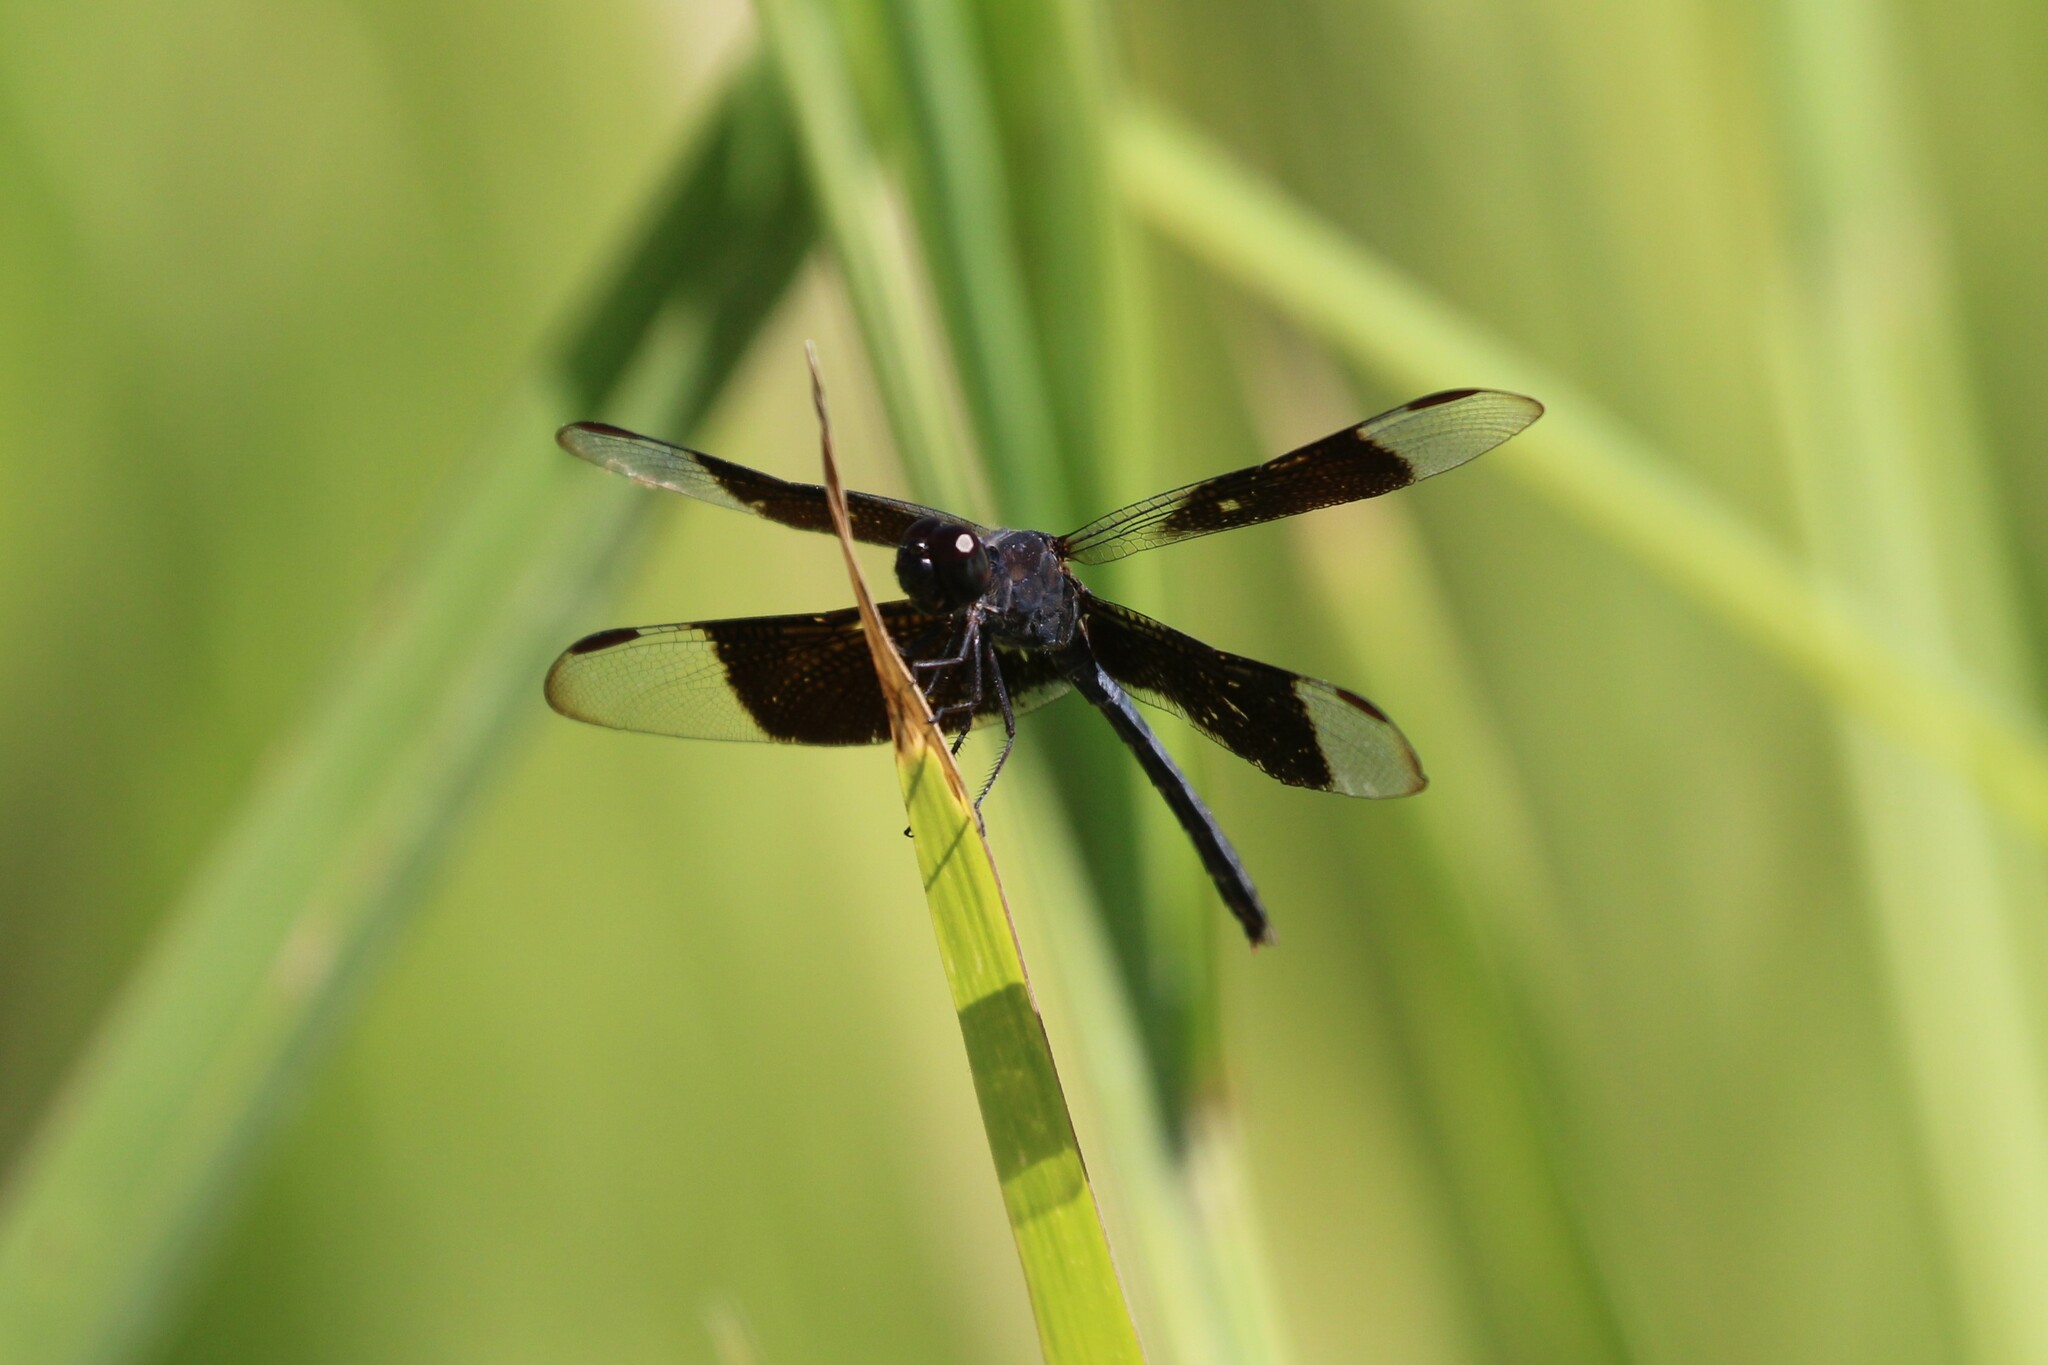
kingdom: Animalia
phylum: Arthropoda
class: Insecta
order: Odonata
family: Libellulidae
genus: Erythrodiplax
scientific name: Erythrodiplax funerea
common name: Black-winged dragonlet
